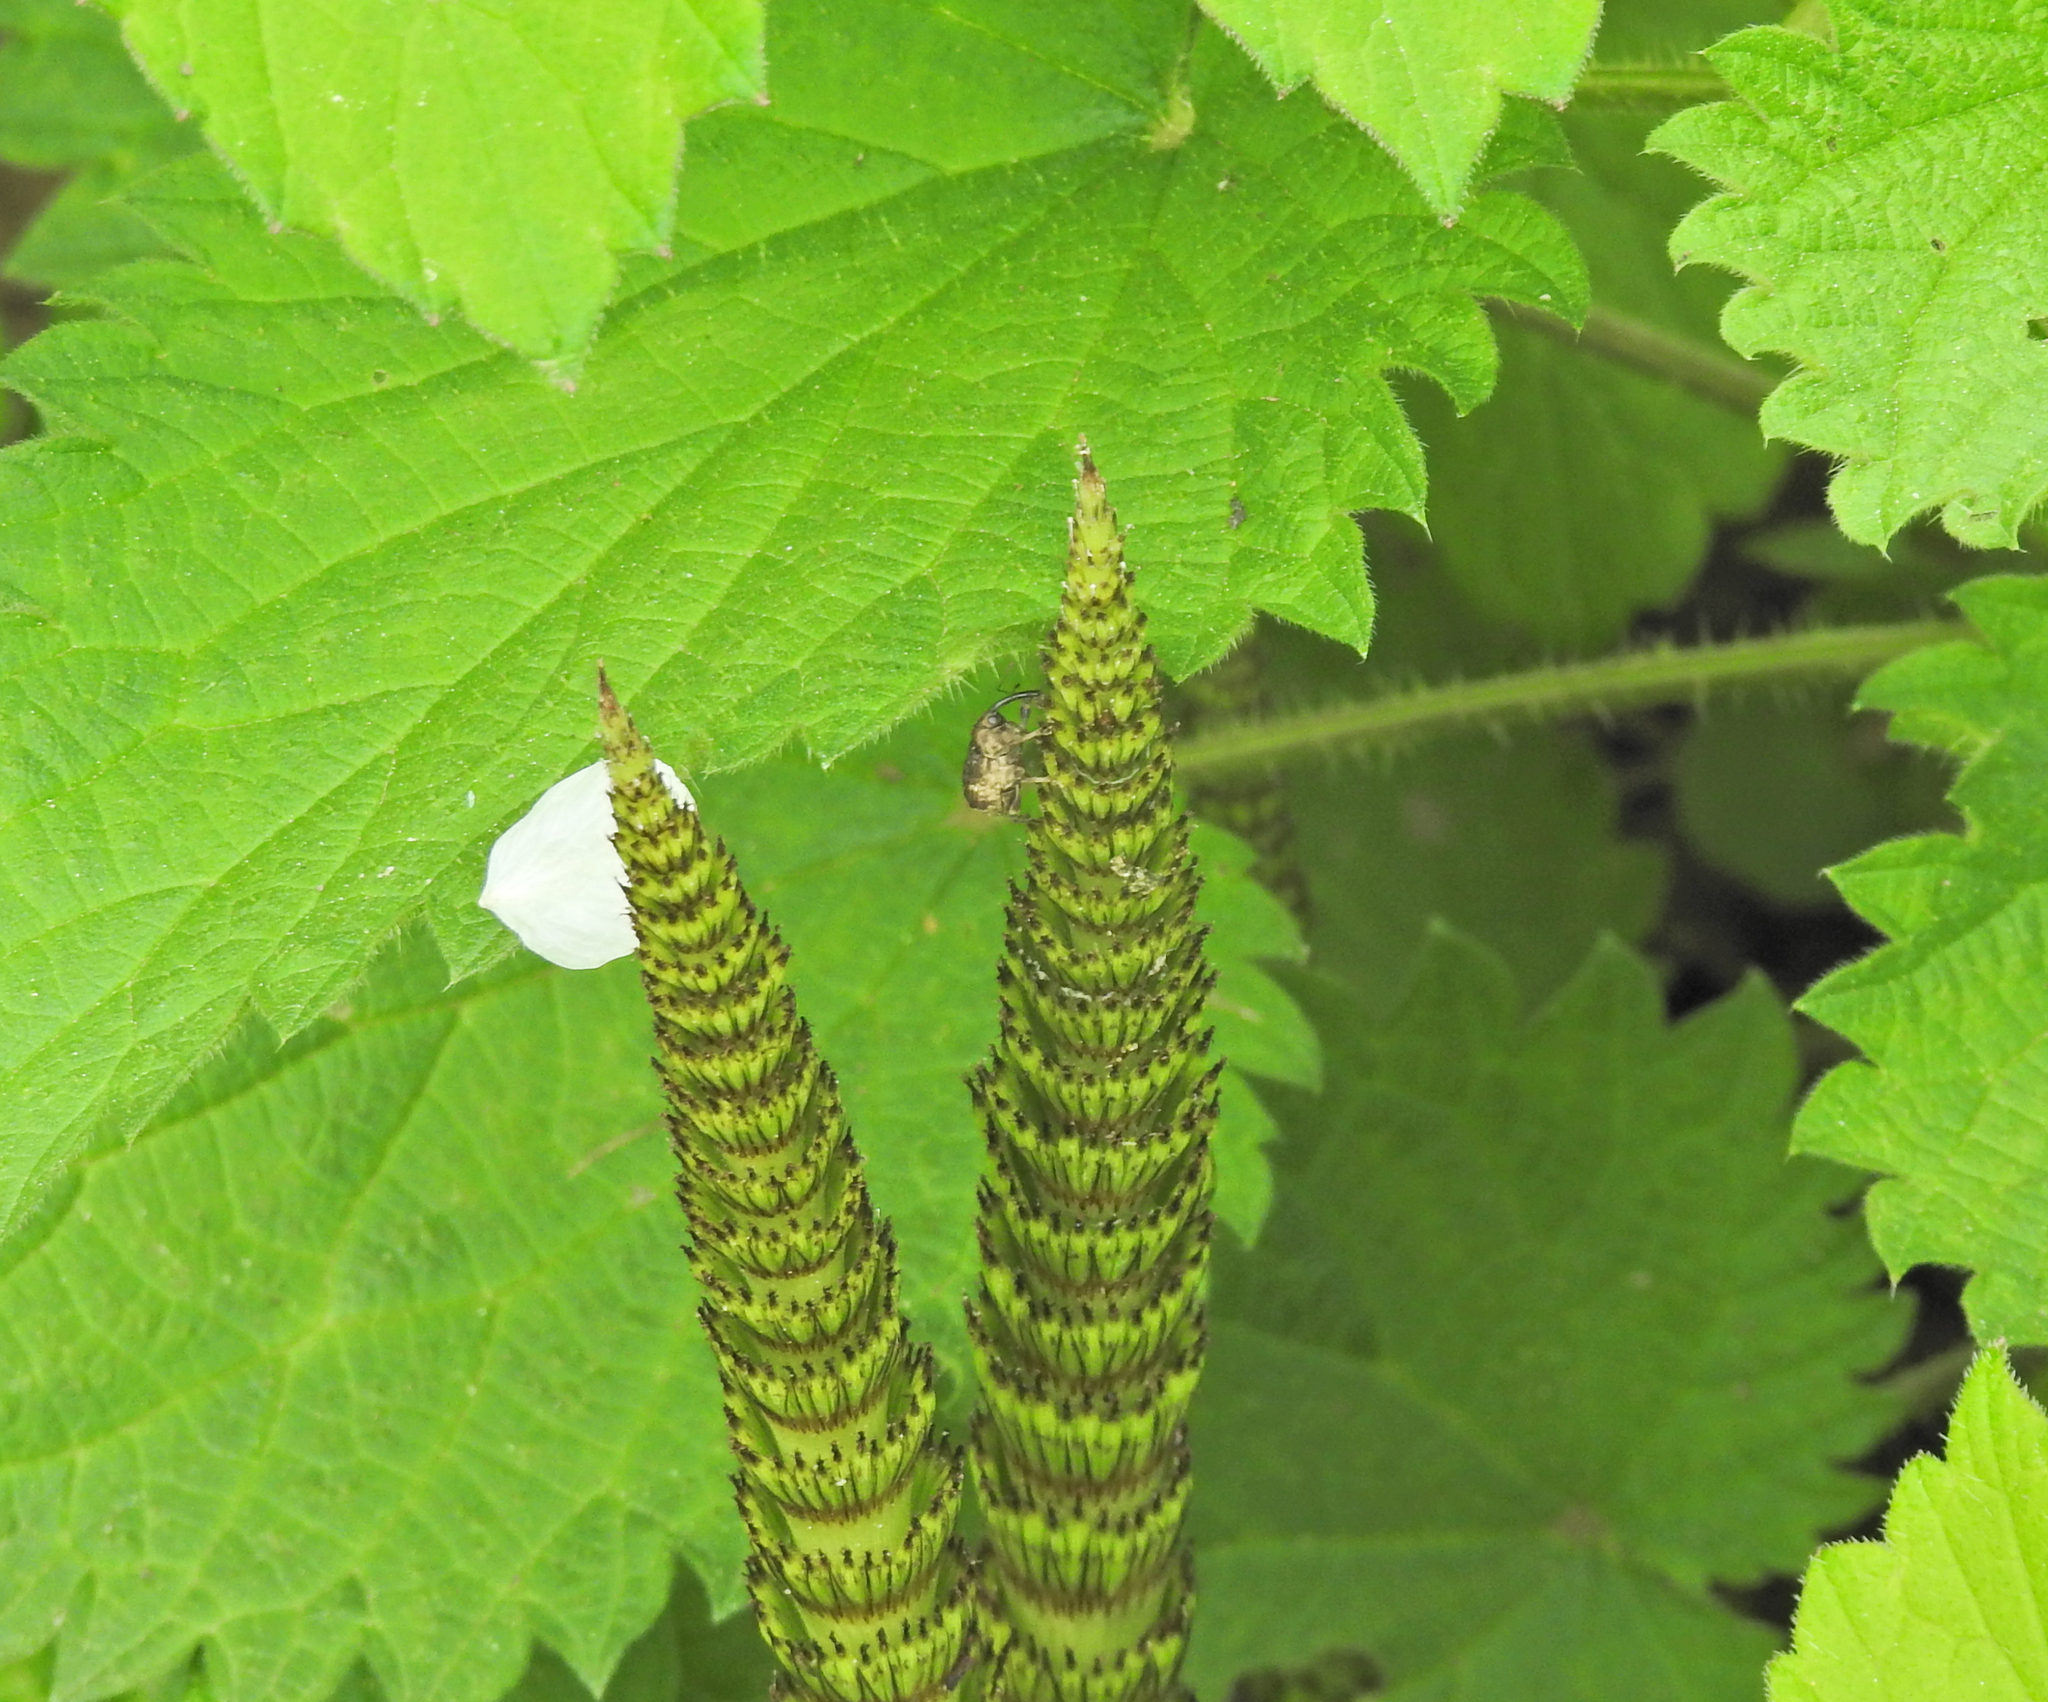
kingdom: Plantae
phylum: Tracheophyta
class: Polypodiopsida
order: Equisetales
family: Equisetaceae
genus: Equisetum
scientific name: Equisetum telmateia
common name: Great horsetail
